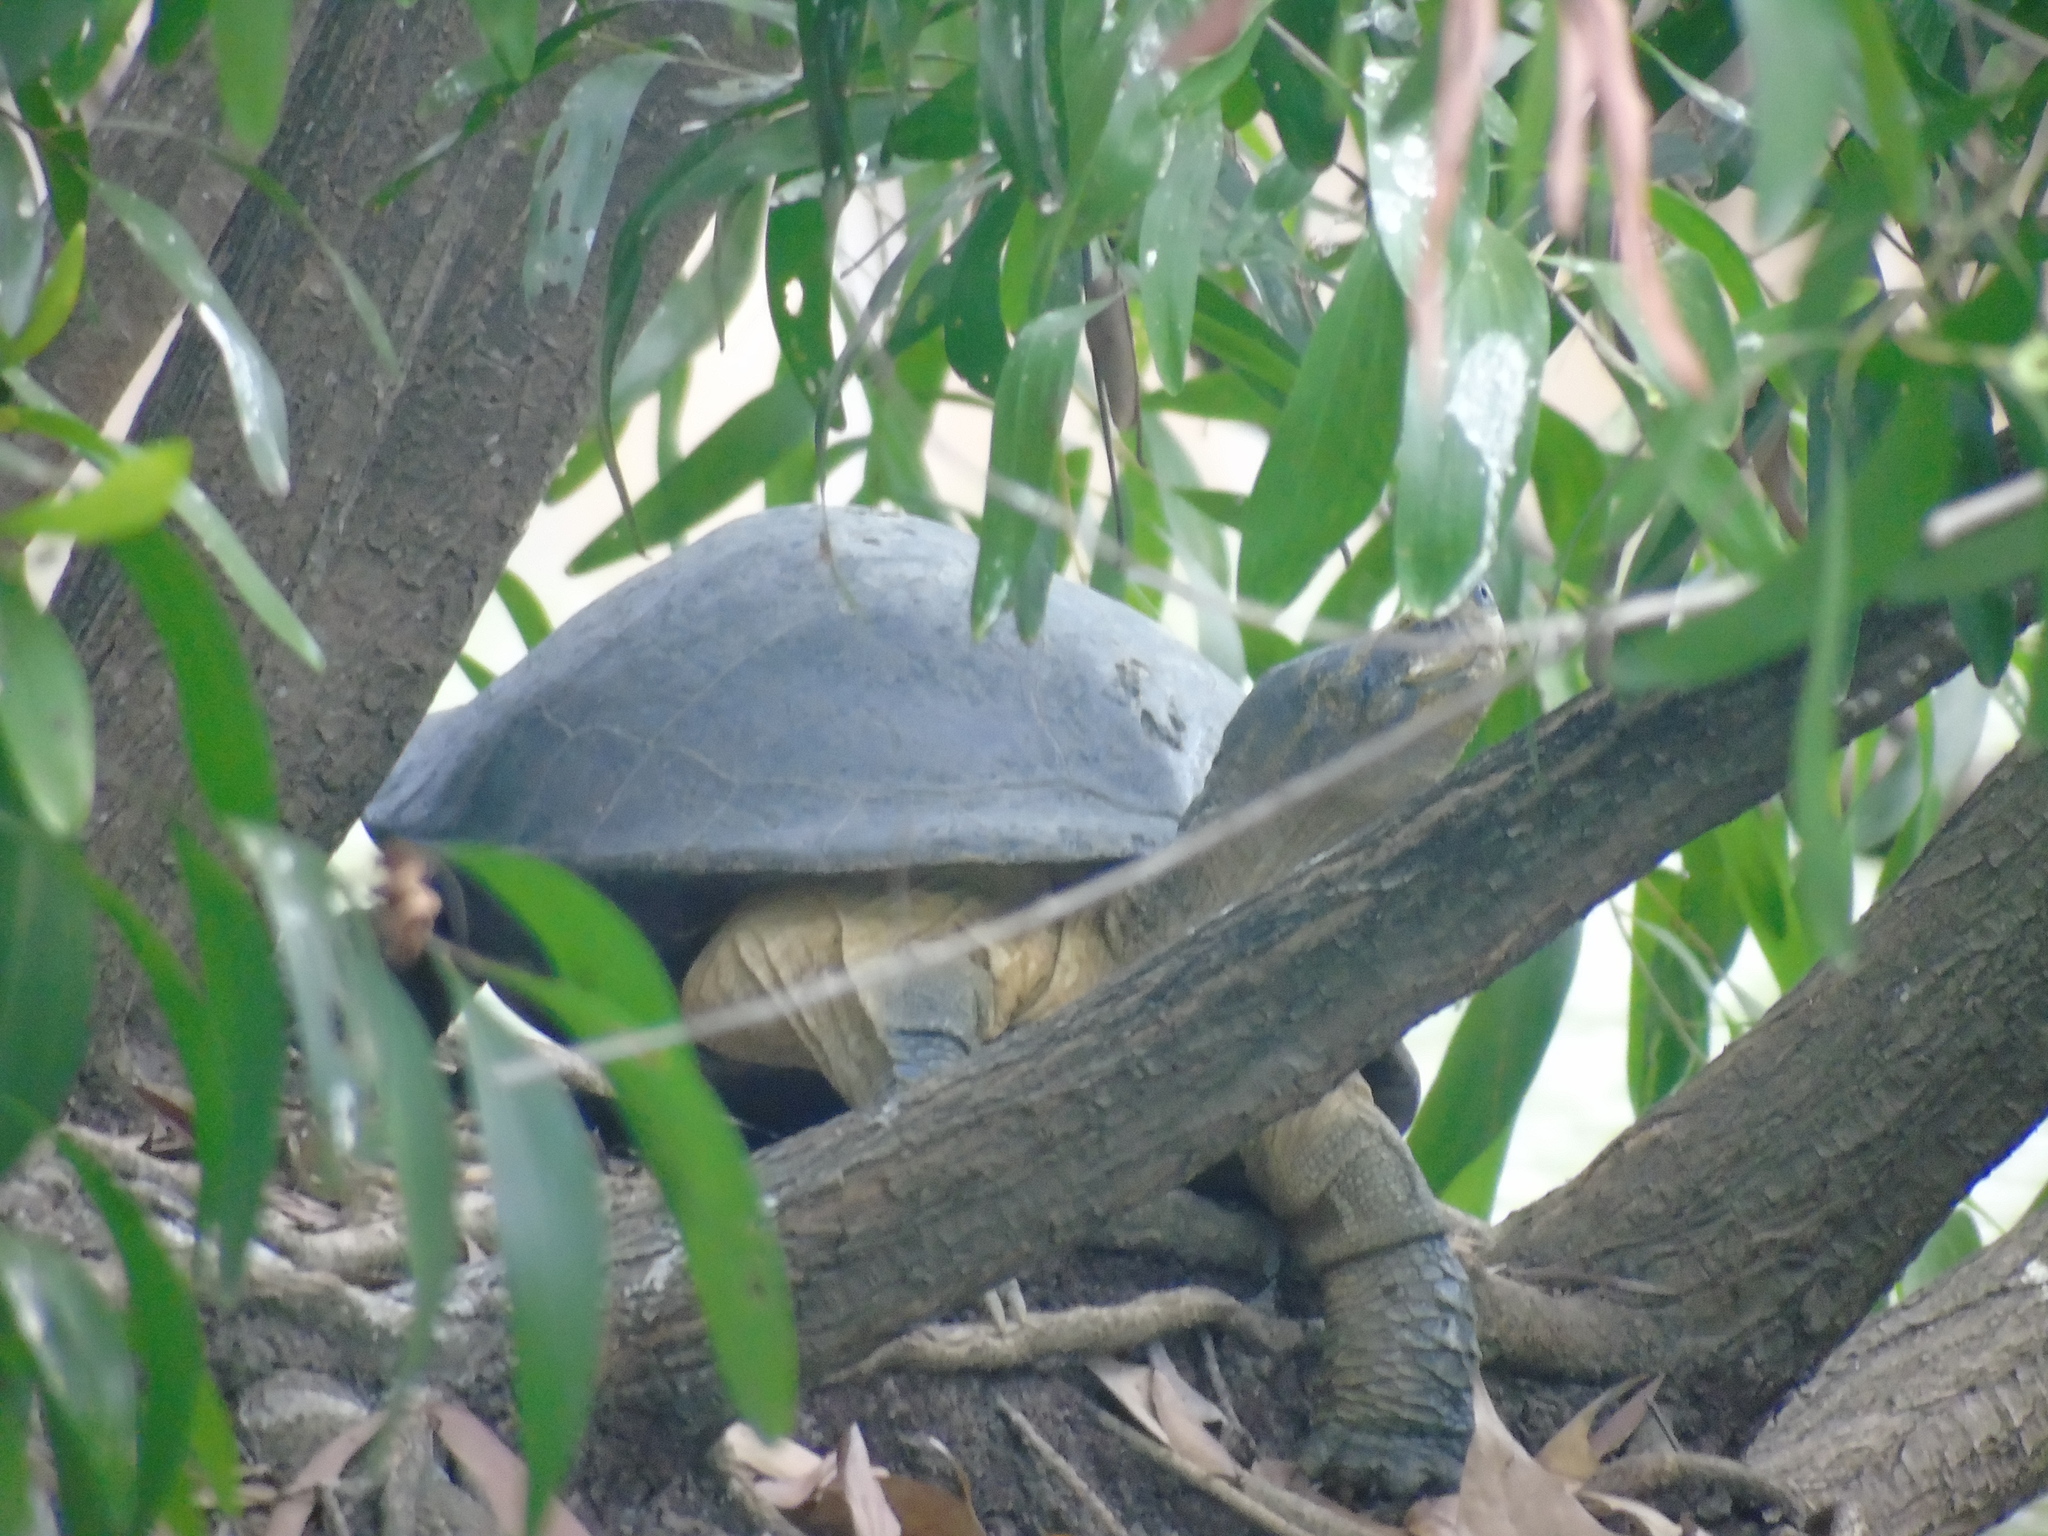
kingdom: Animalia
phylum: Chordata
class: Testudines
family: Geoemydidae
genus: Heosemys
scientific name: Heosemys annandalii
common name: Yellow-headed temple turtle
